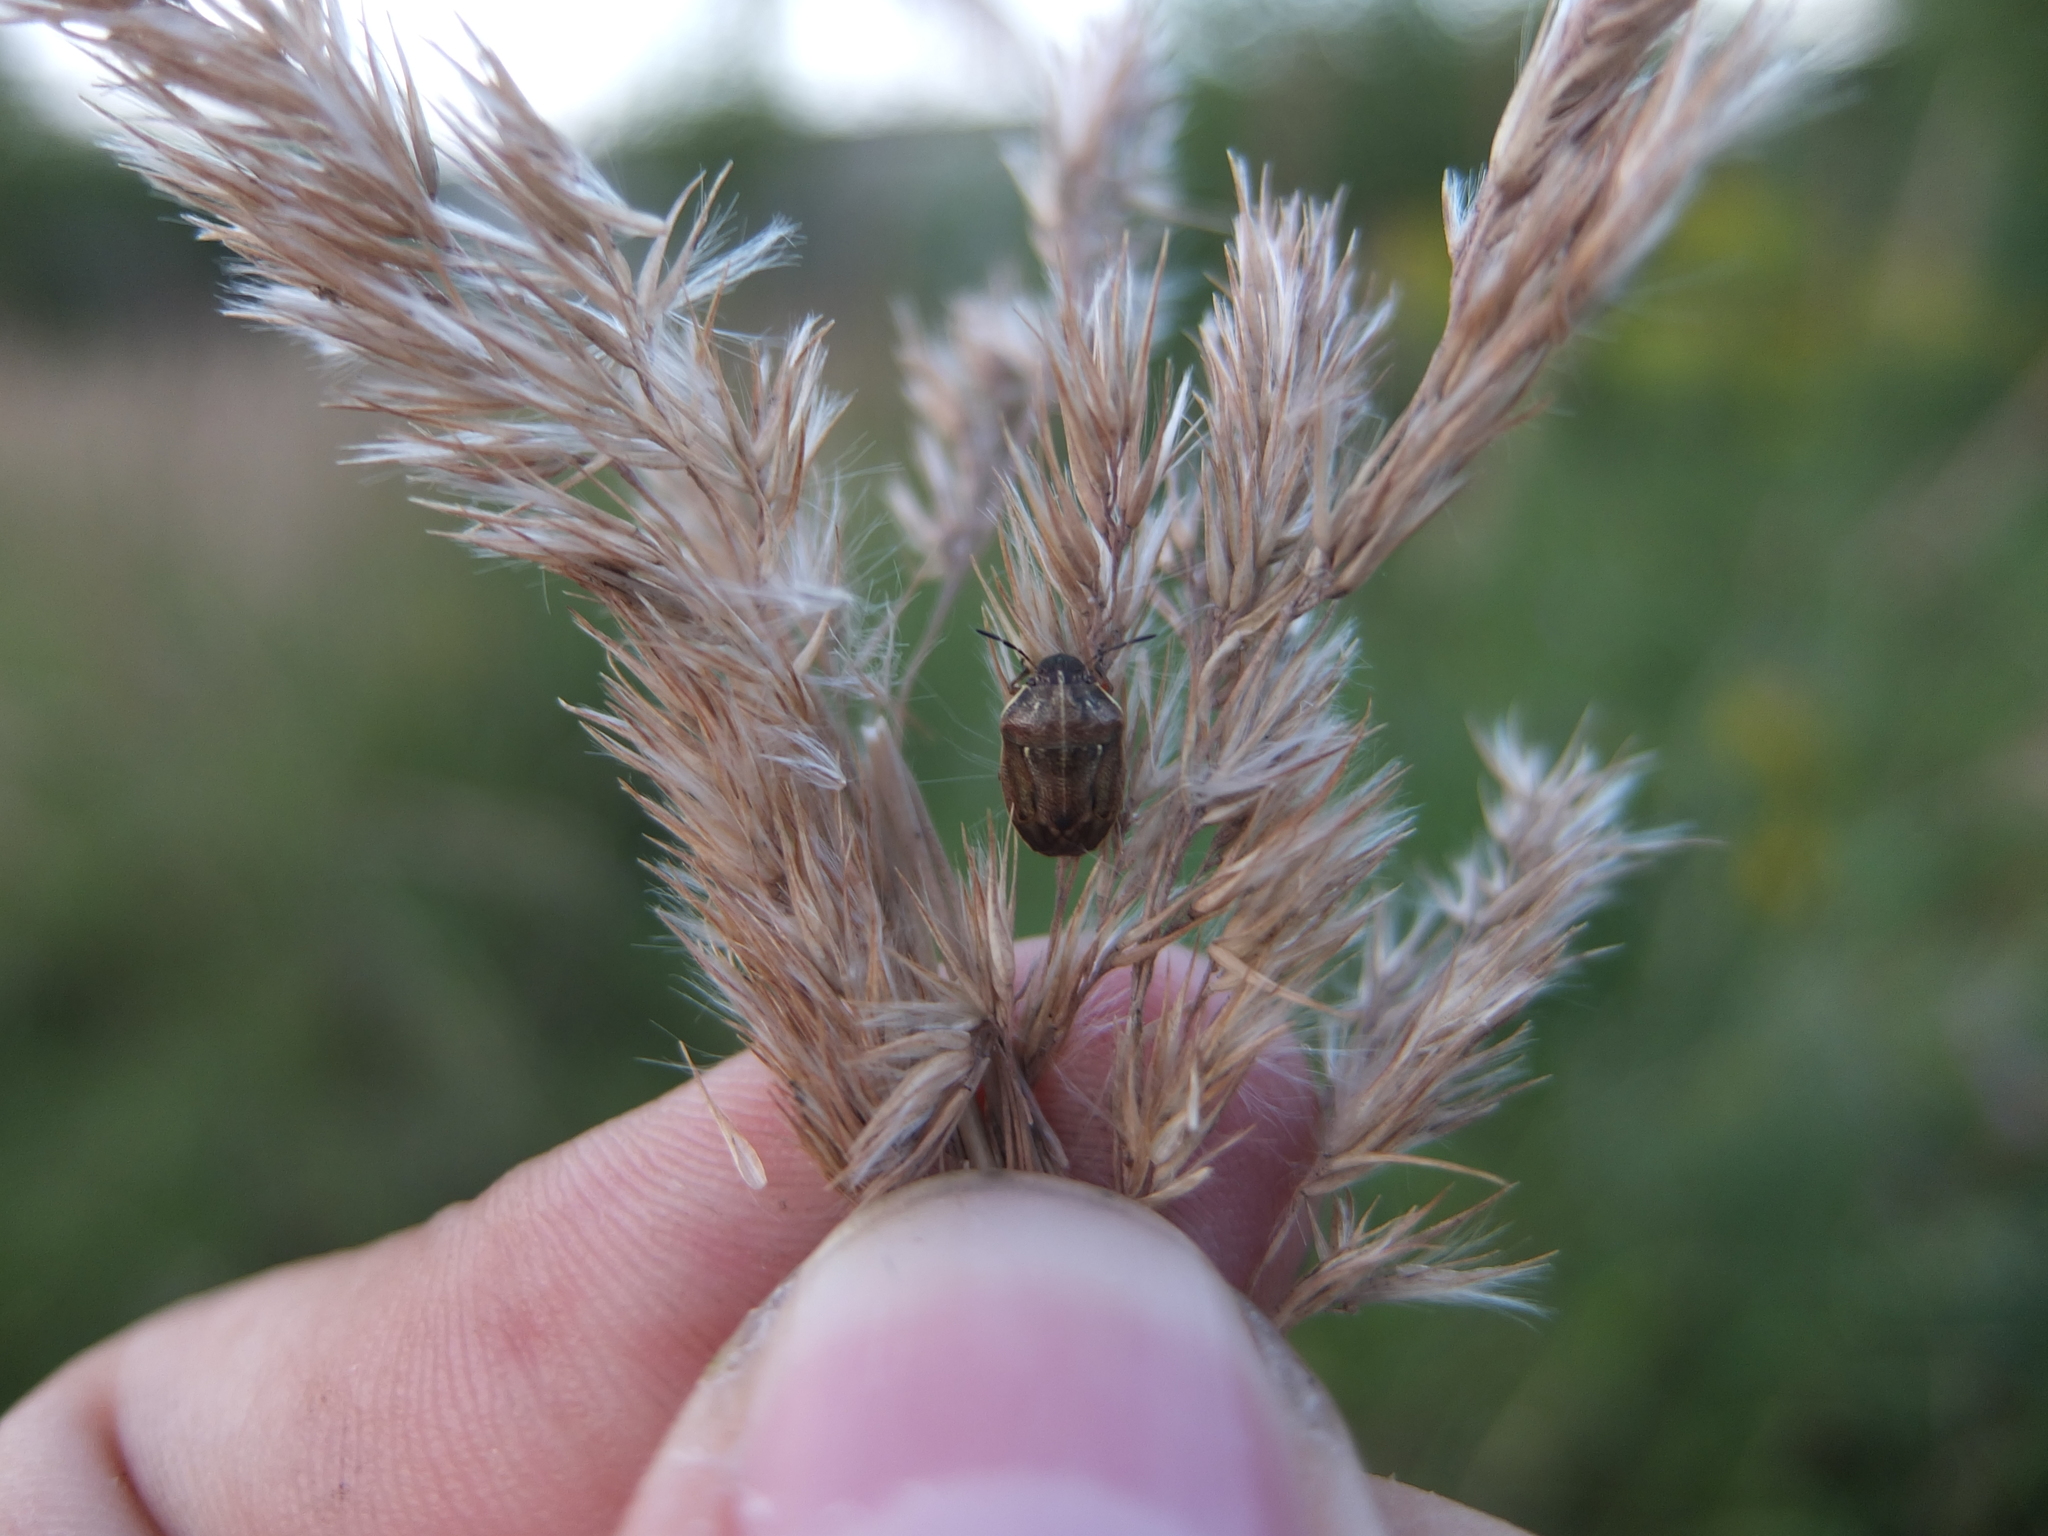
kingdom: Animalia
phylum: Arthropoda
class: Insecta
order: Hemiptera
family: Pentatomidae
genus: Neottiglossa
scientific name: Neottiglossa pusilla
